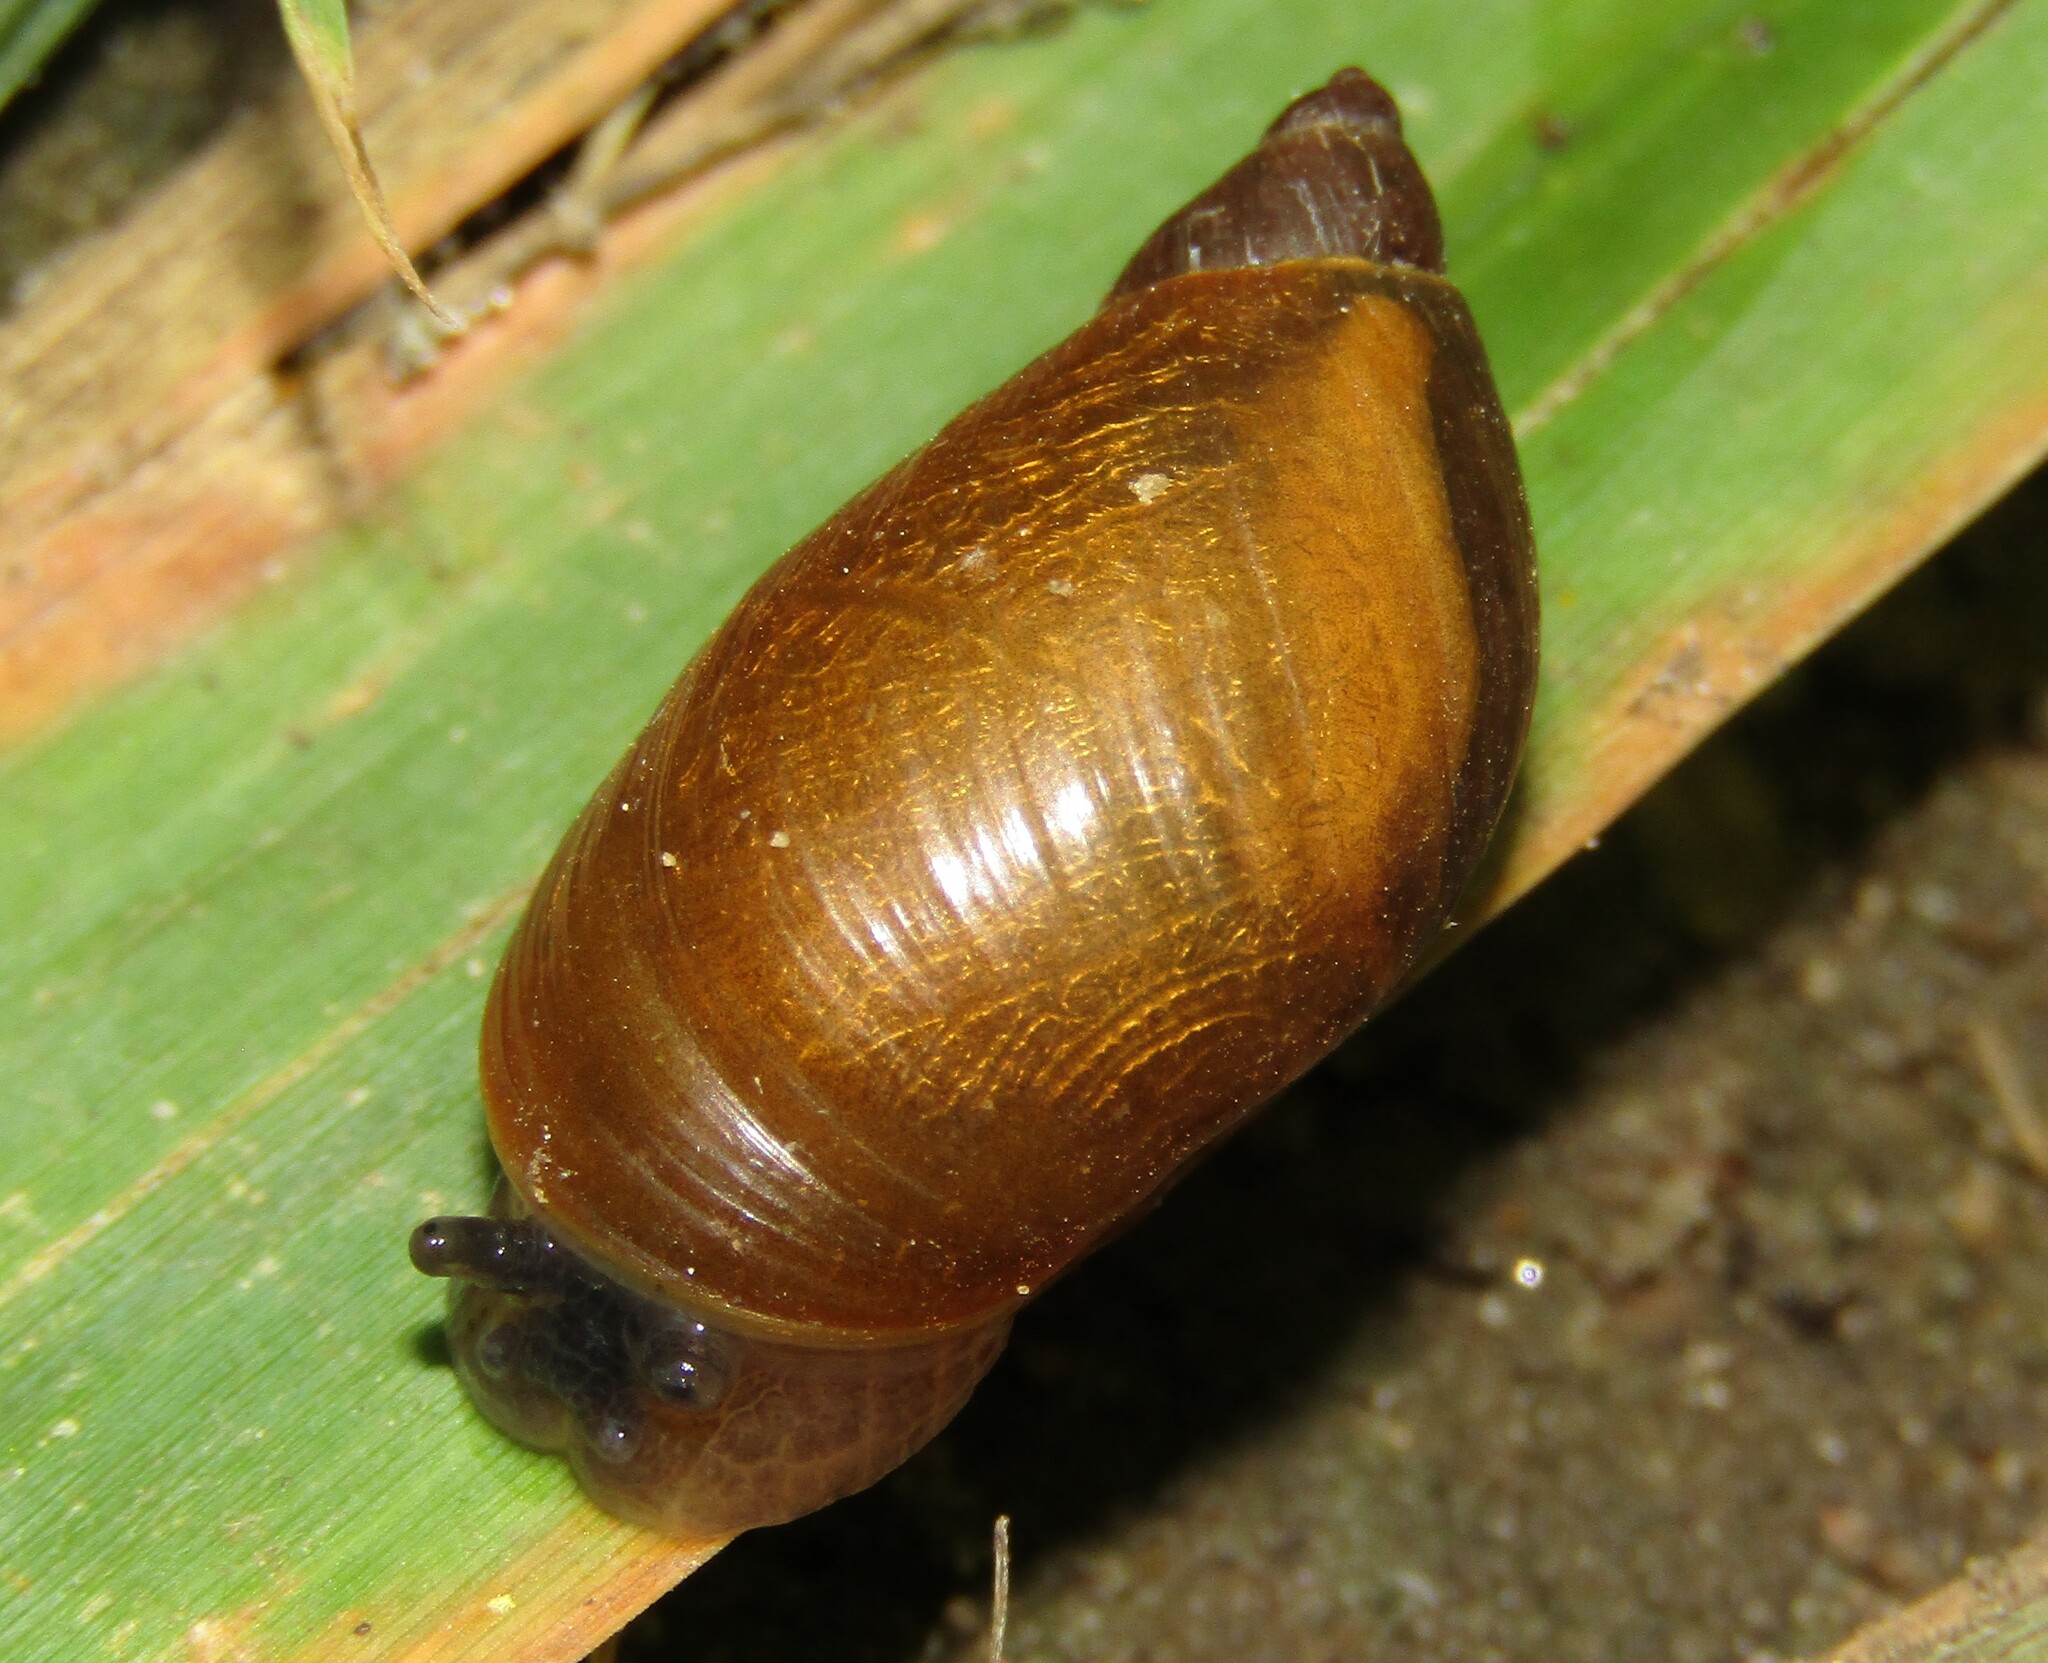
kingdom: Animalia
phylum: Mollusca
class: Gastropoda
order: Stylommatophora
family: Succineidae
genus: Succinea
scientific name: Succinea putris
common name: European ambersnail
